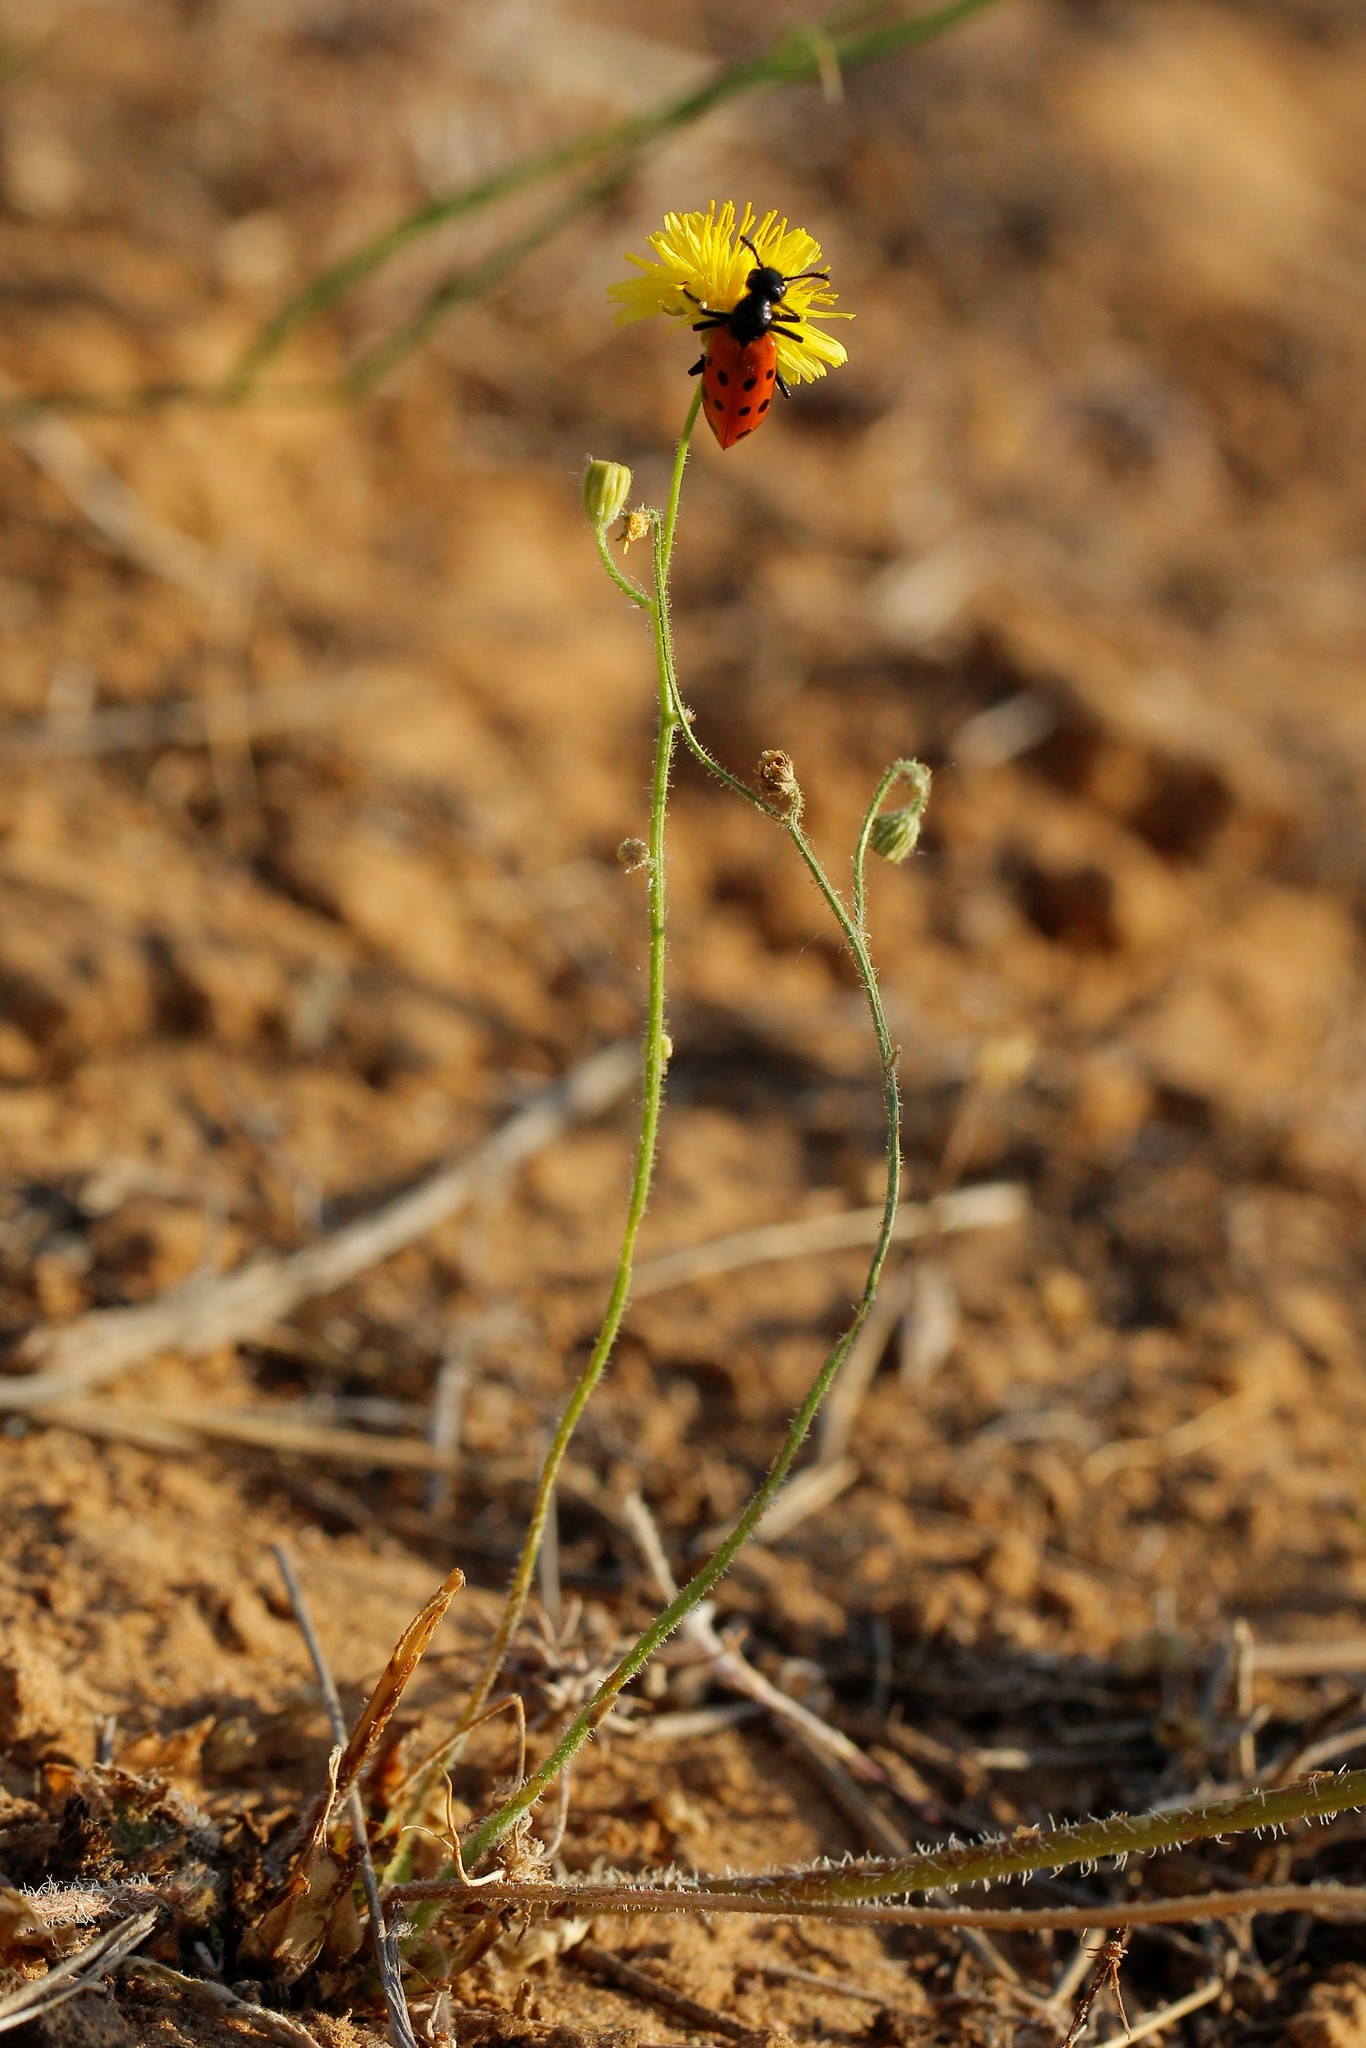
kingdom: Plantae
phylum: Tracheophyta
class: Magnoliopsida
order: Asterales
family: Asteraceae
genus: Crepis
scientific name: Crepis sancta
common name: Hawk's-beard
